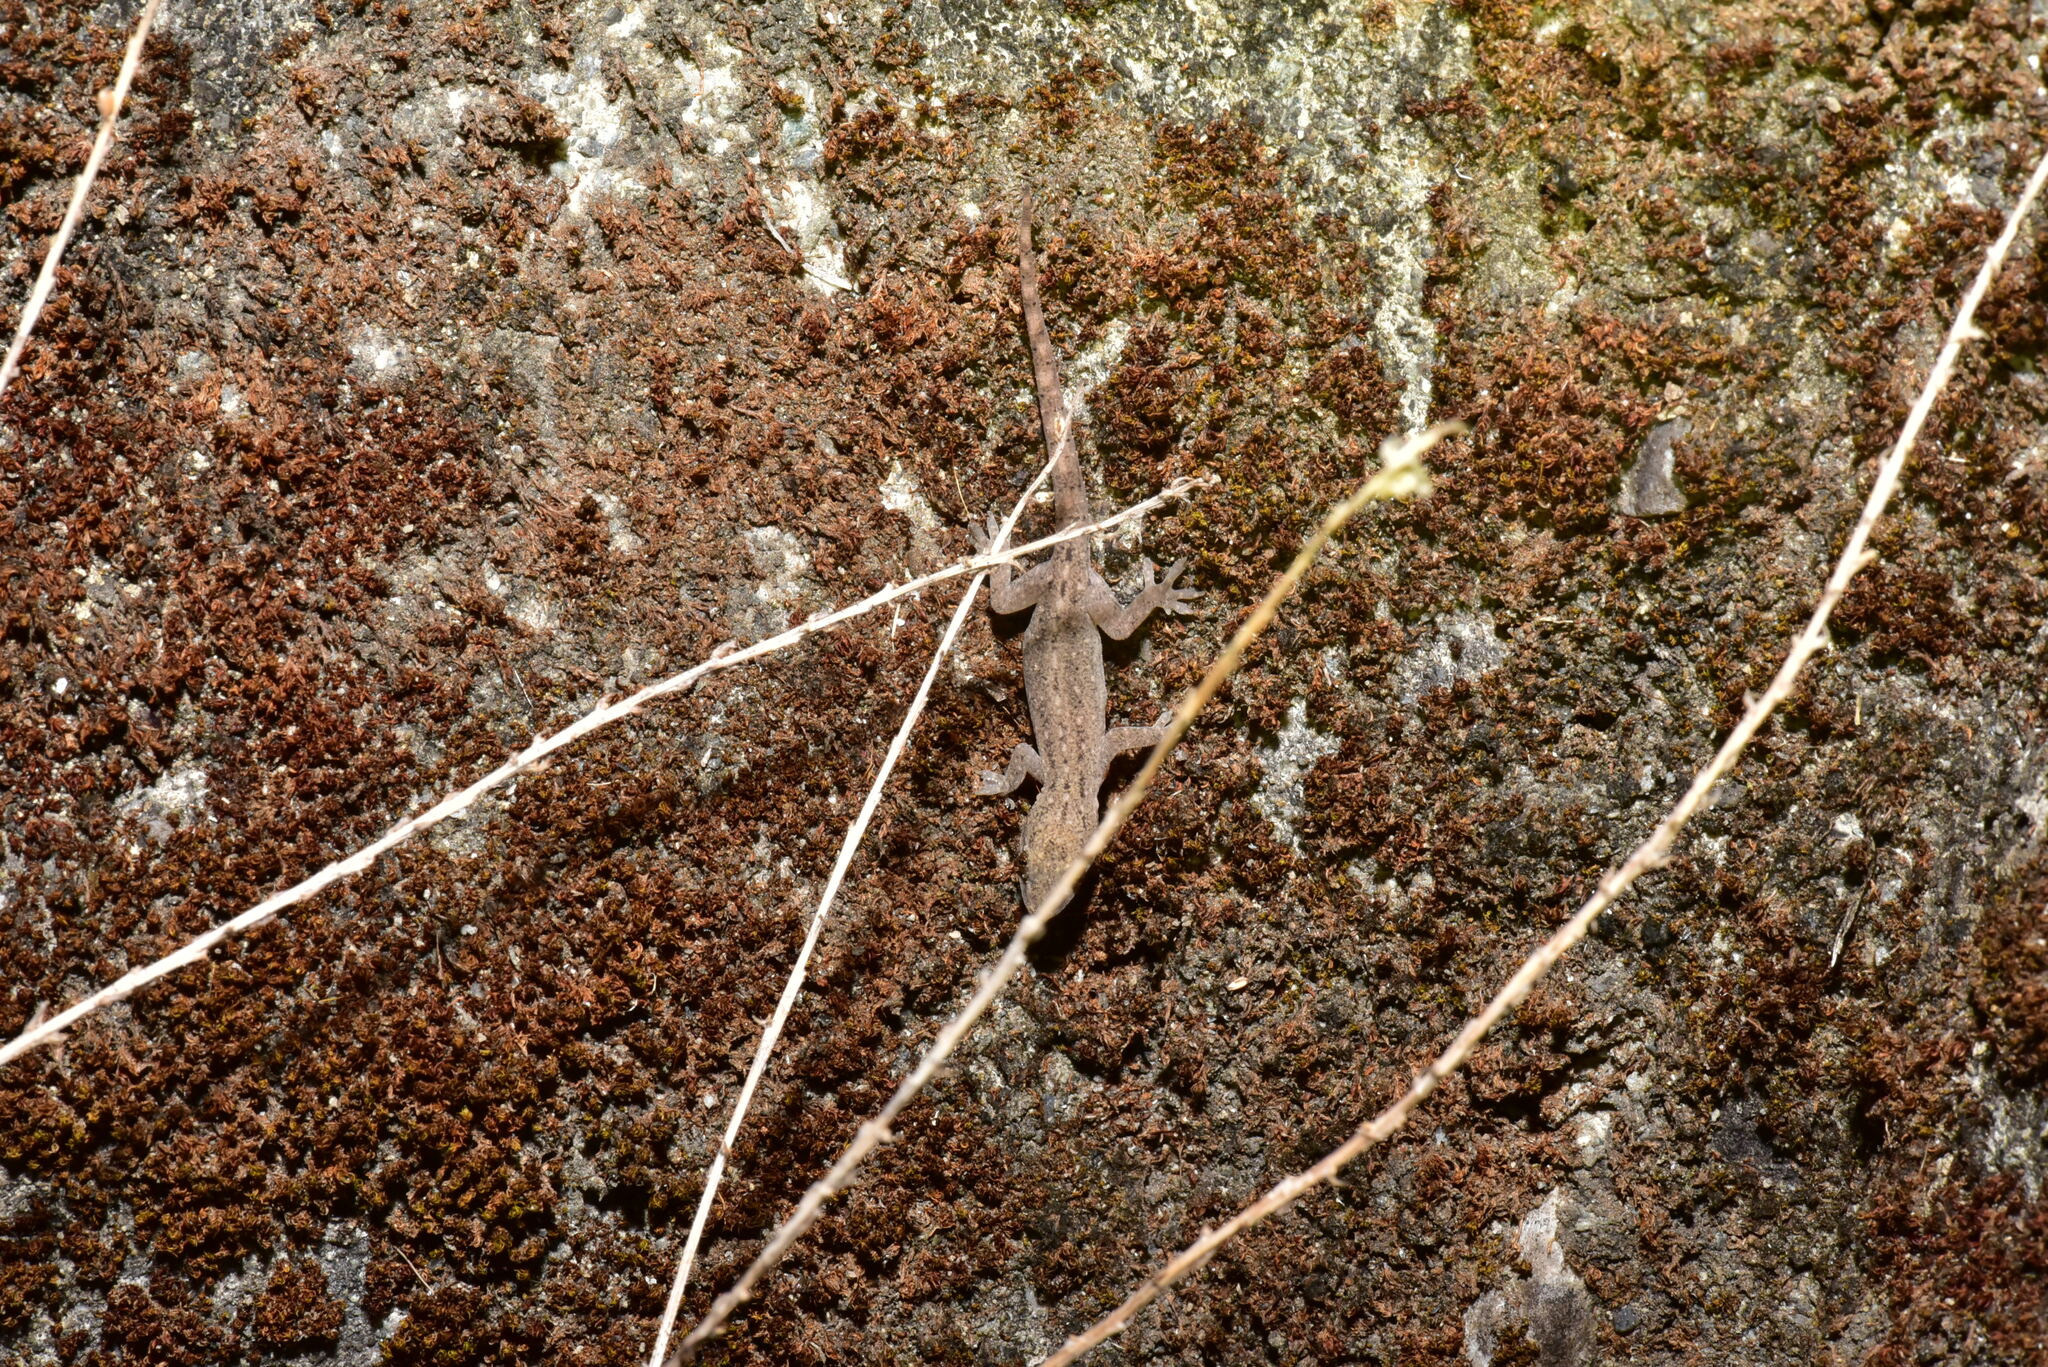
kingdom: Animalia
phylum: Chordata
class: Squamata
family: Gekkonidae
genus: Hemidactylus
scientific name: Hemidactylus frenatus
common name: Common house gecko
